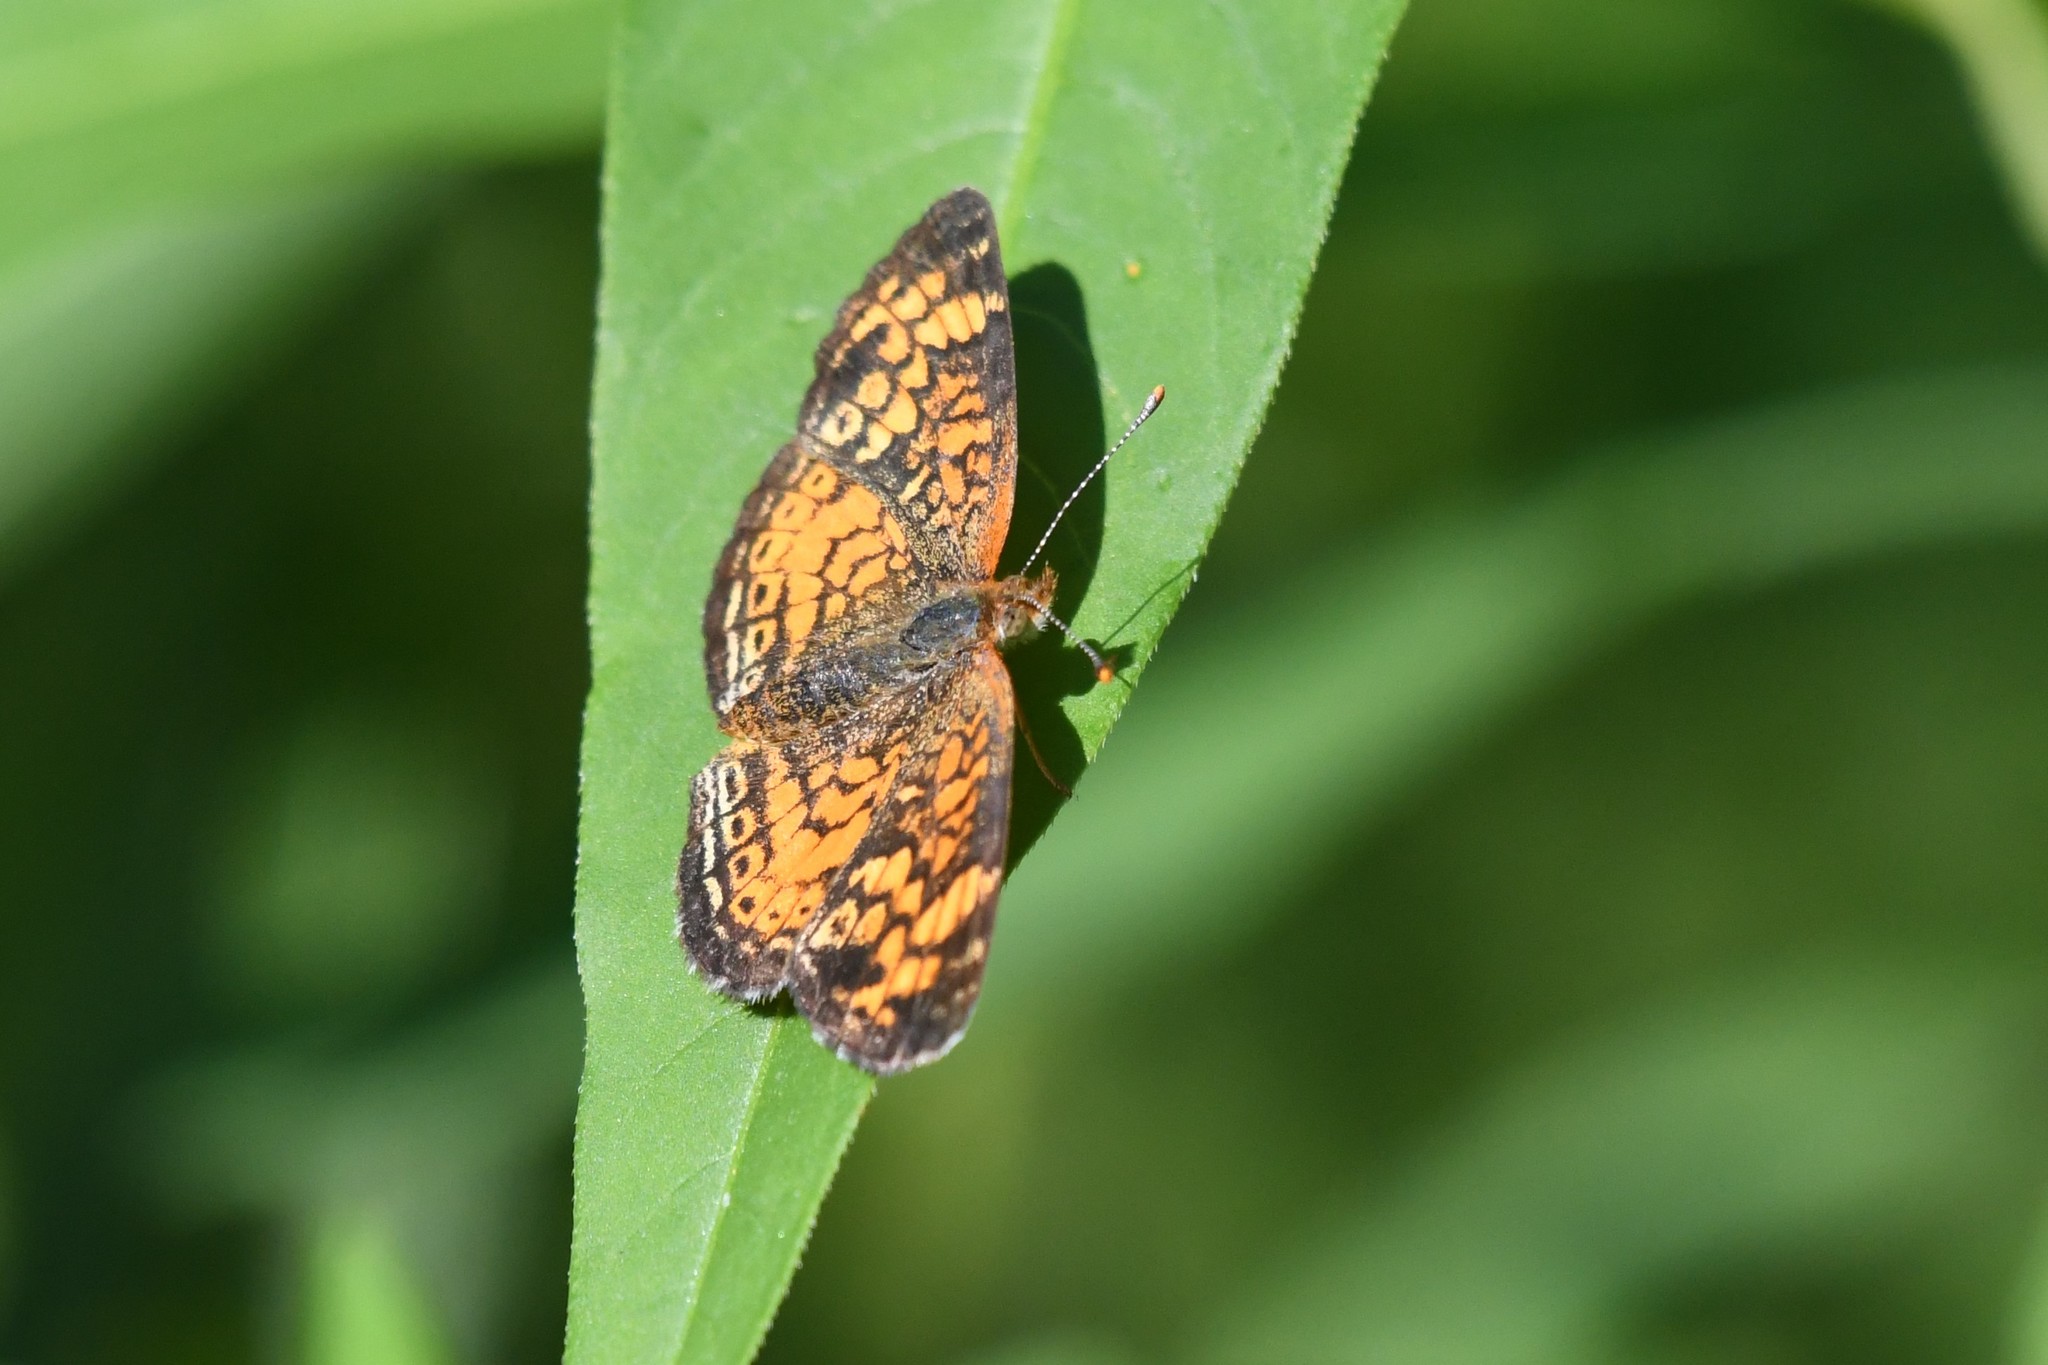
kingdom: Animalia
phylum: Arthropoda
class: Insecta
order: Lepidoptera
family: Nymphalidae
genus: Phyciodes
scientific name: Phyciodes tharos
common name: Pearl crescent
